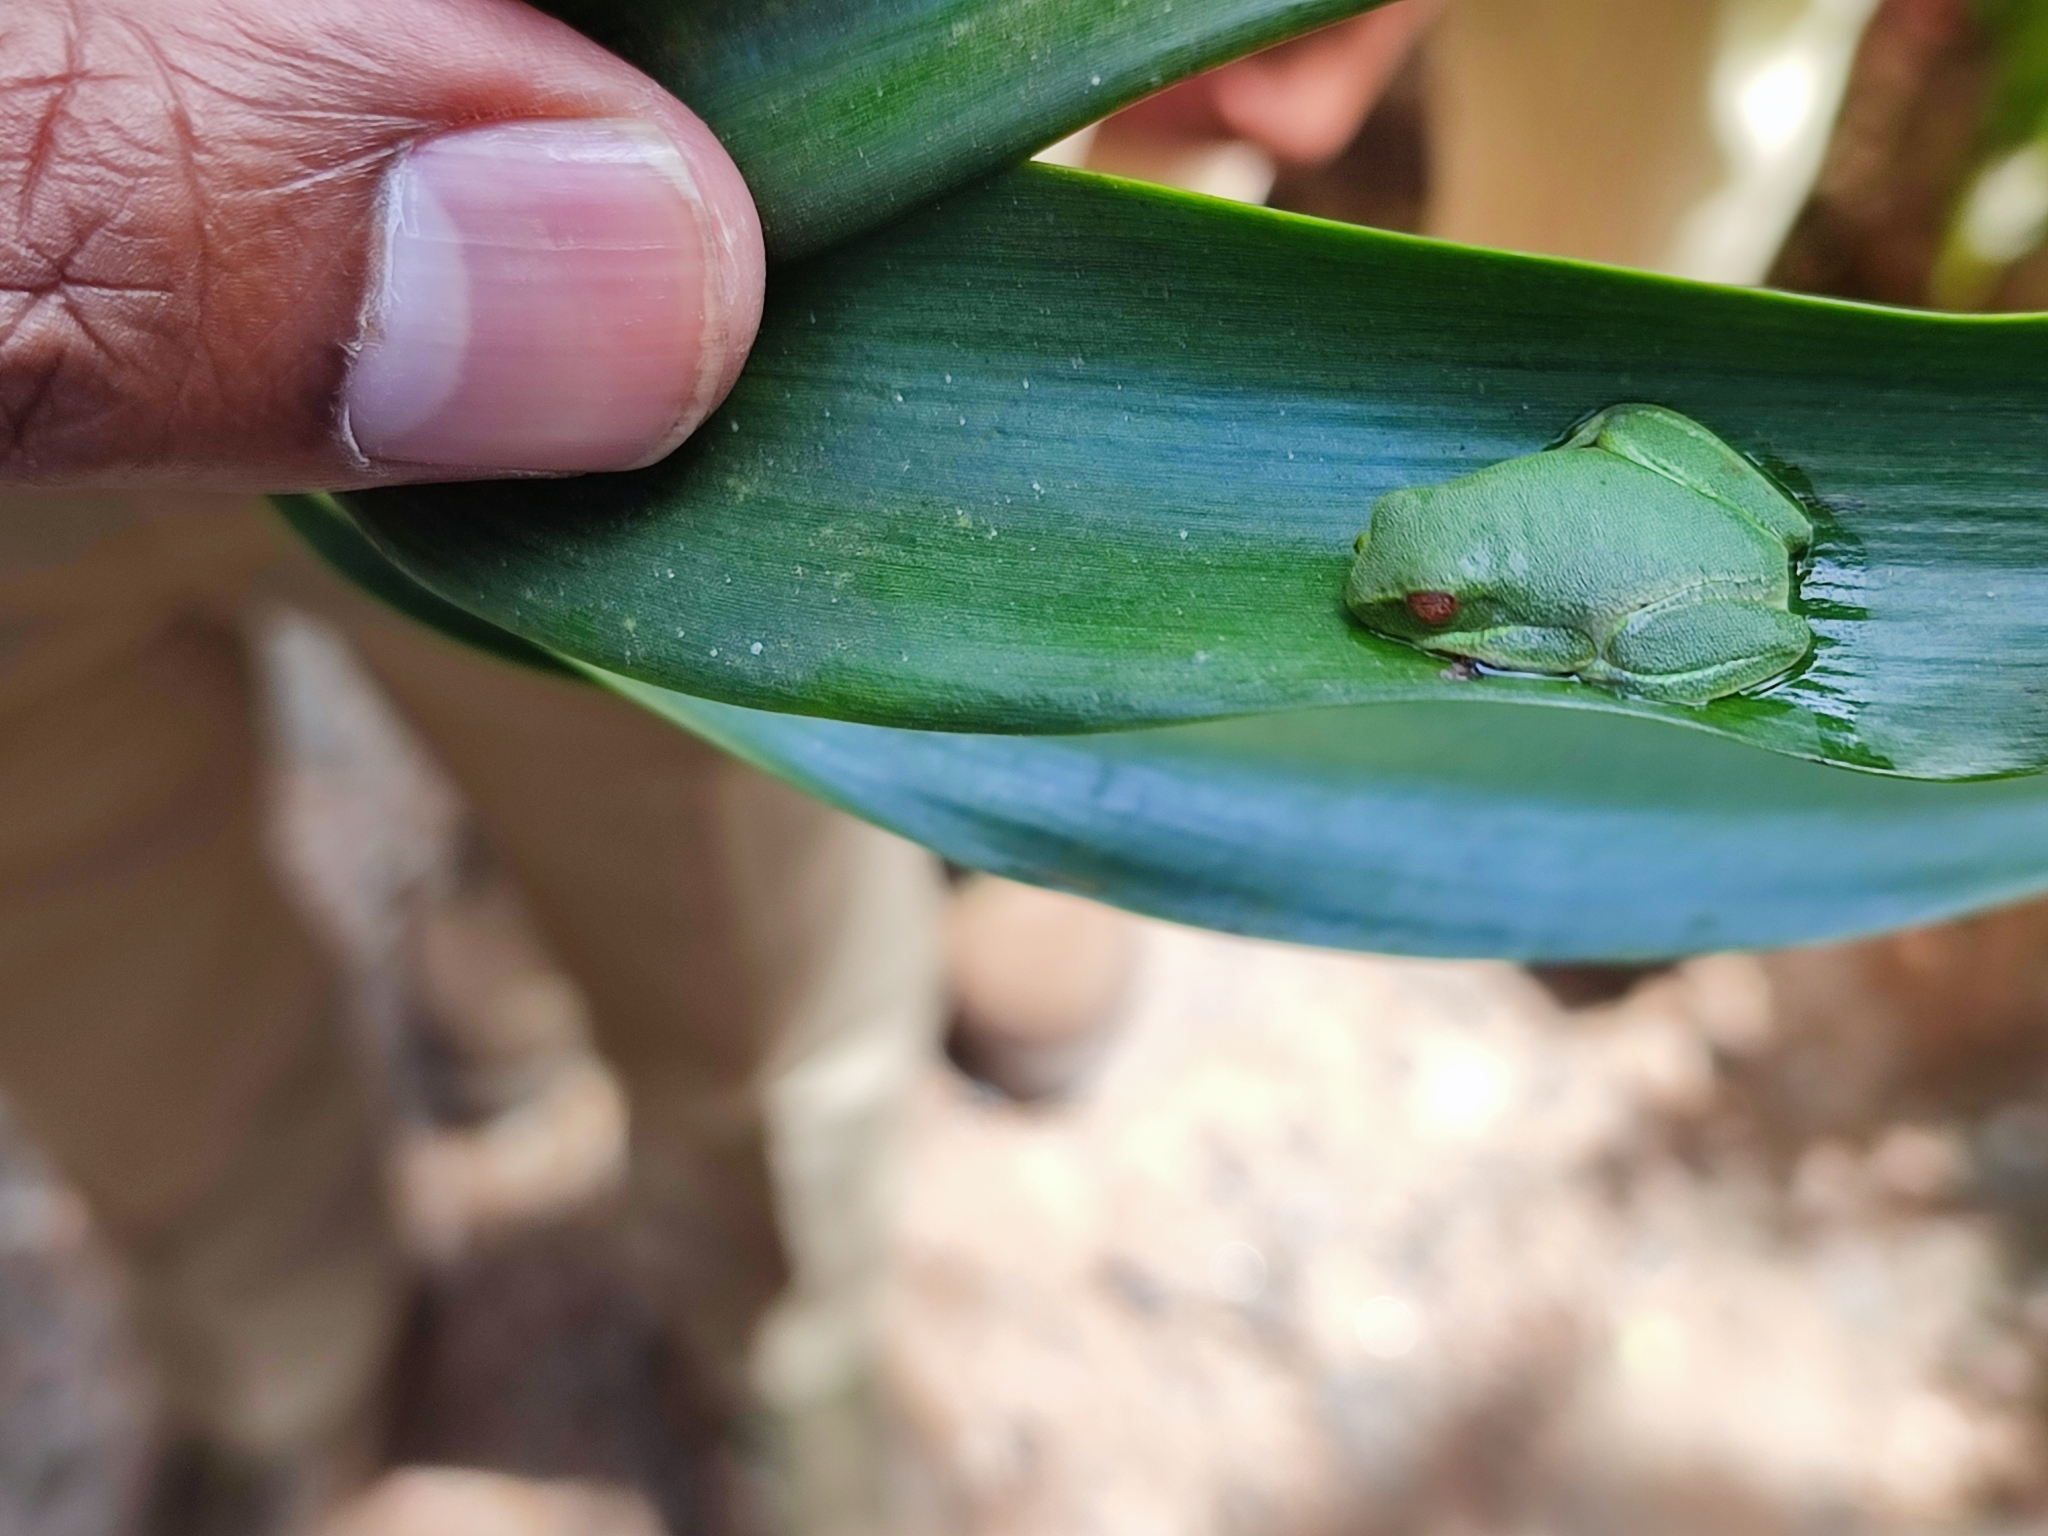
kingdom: Animalia
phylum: Chordata
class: Amphibia
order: Anura
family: Rhacophoridae
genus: Raorchestes
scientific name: Raorchestes jayarami
